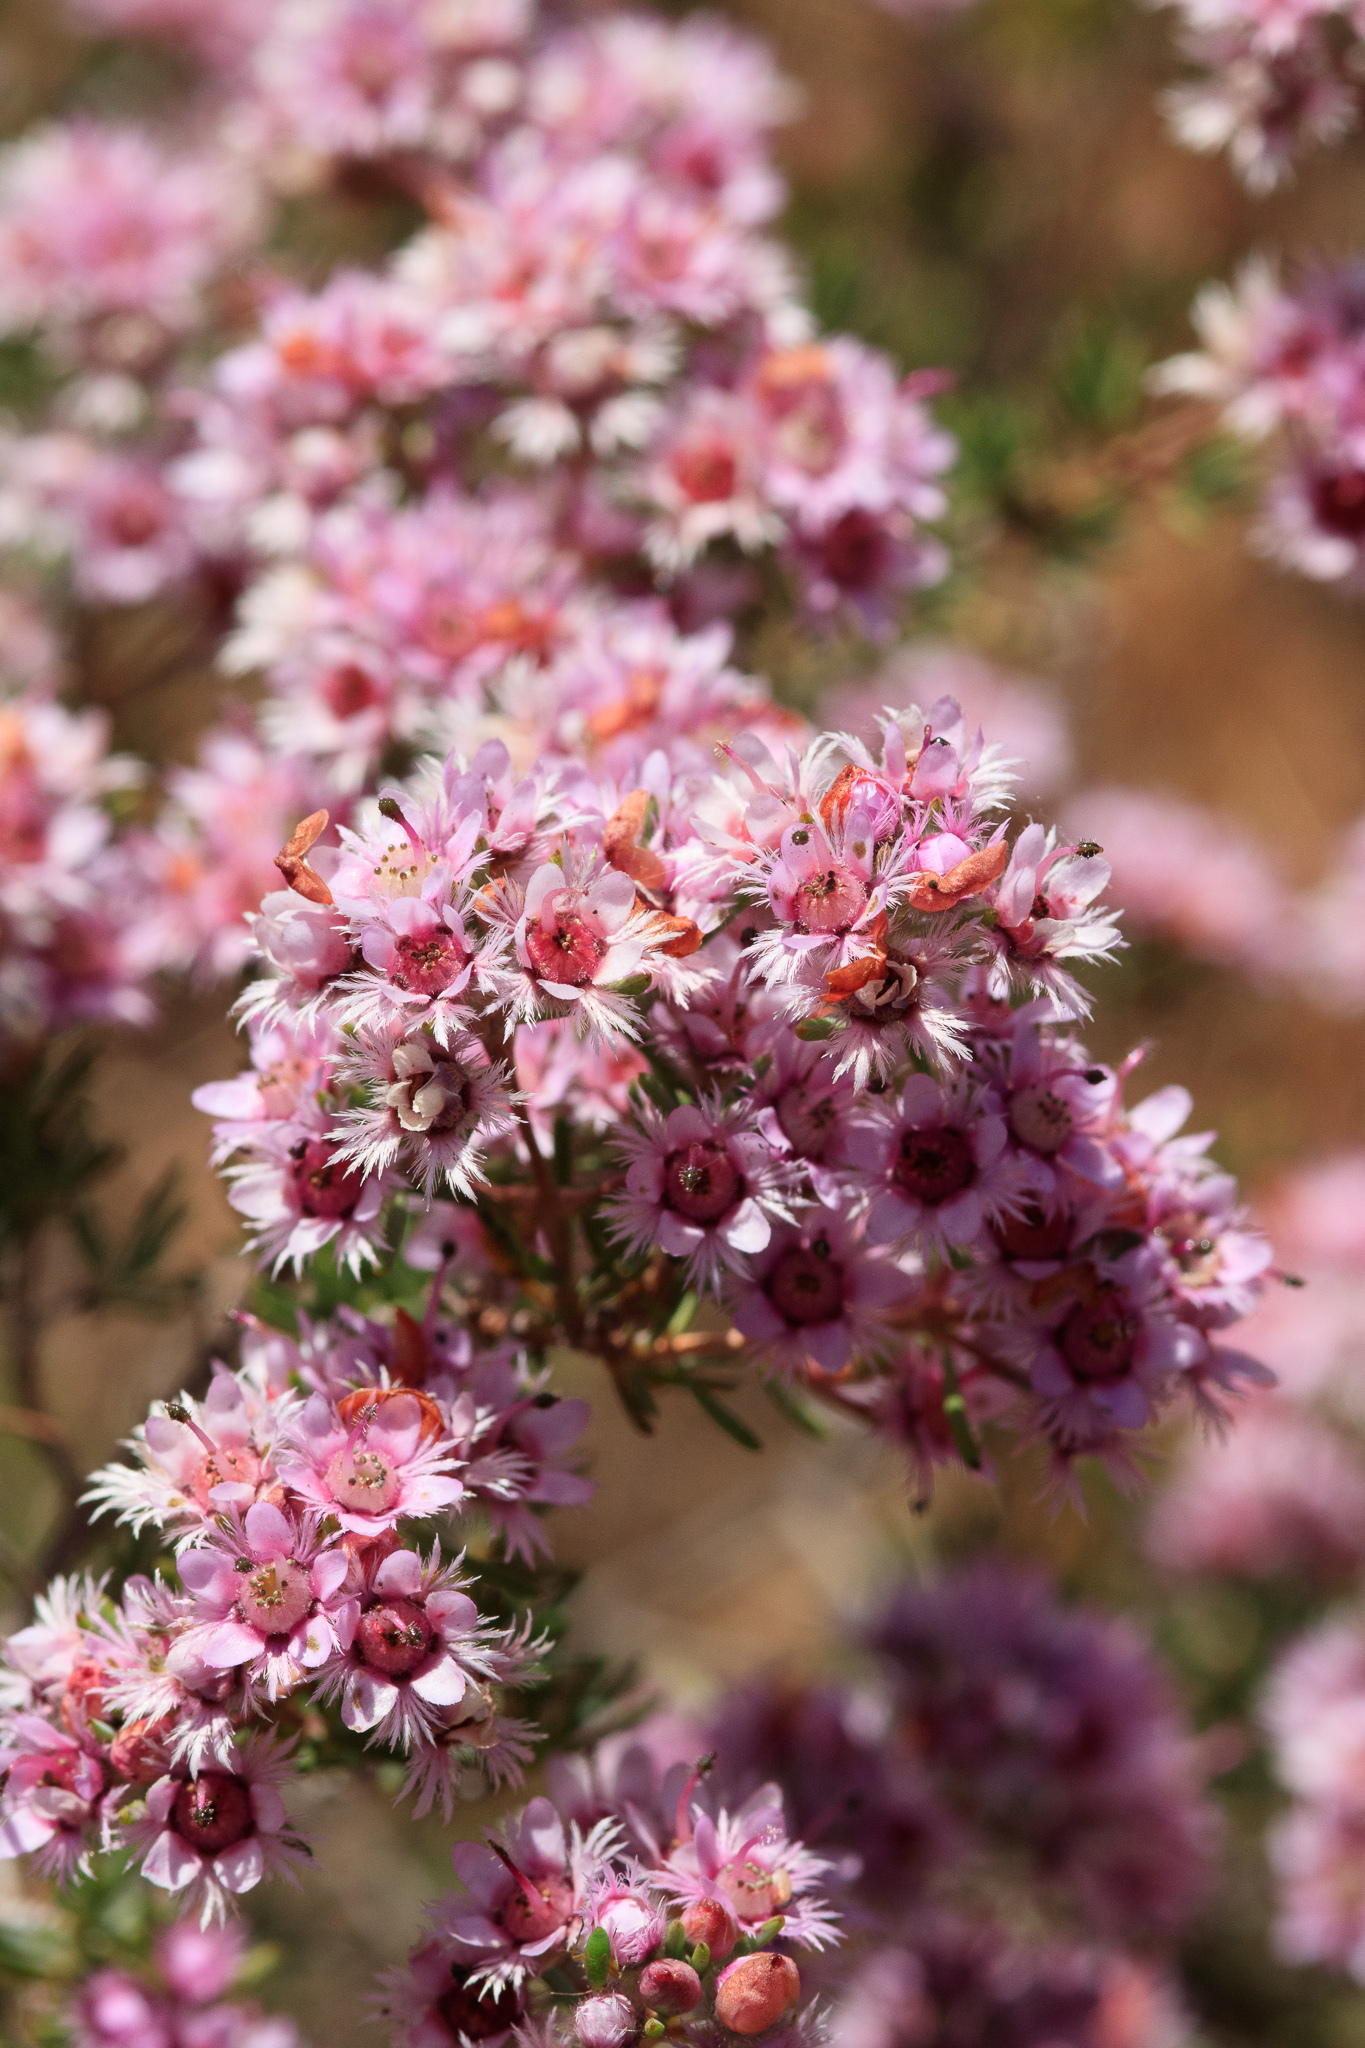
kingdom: Plantae
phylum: Tracheophyta
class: Magnoliopsida
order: Myrtales
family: Myrtaceae
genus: Verticordia
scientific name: Verticordia plumosa
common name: Plume feather-flower
